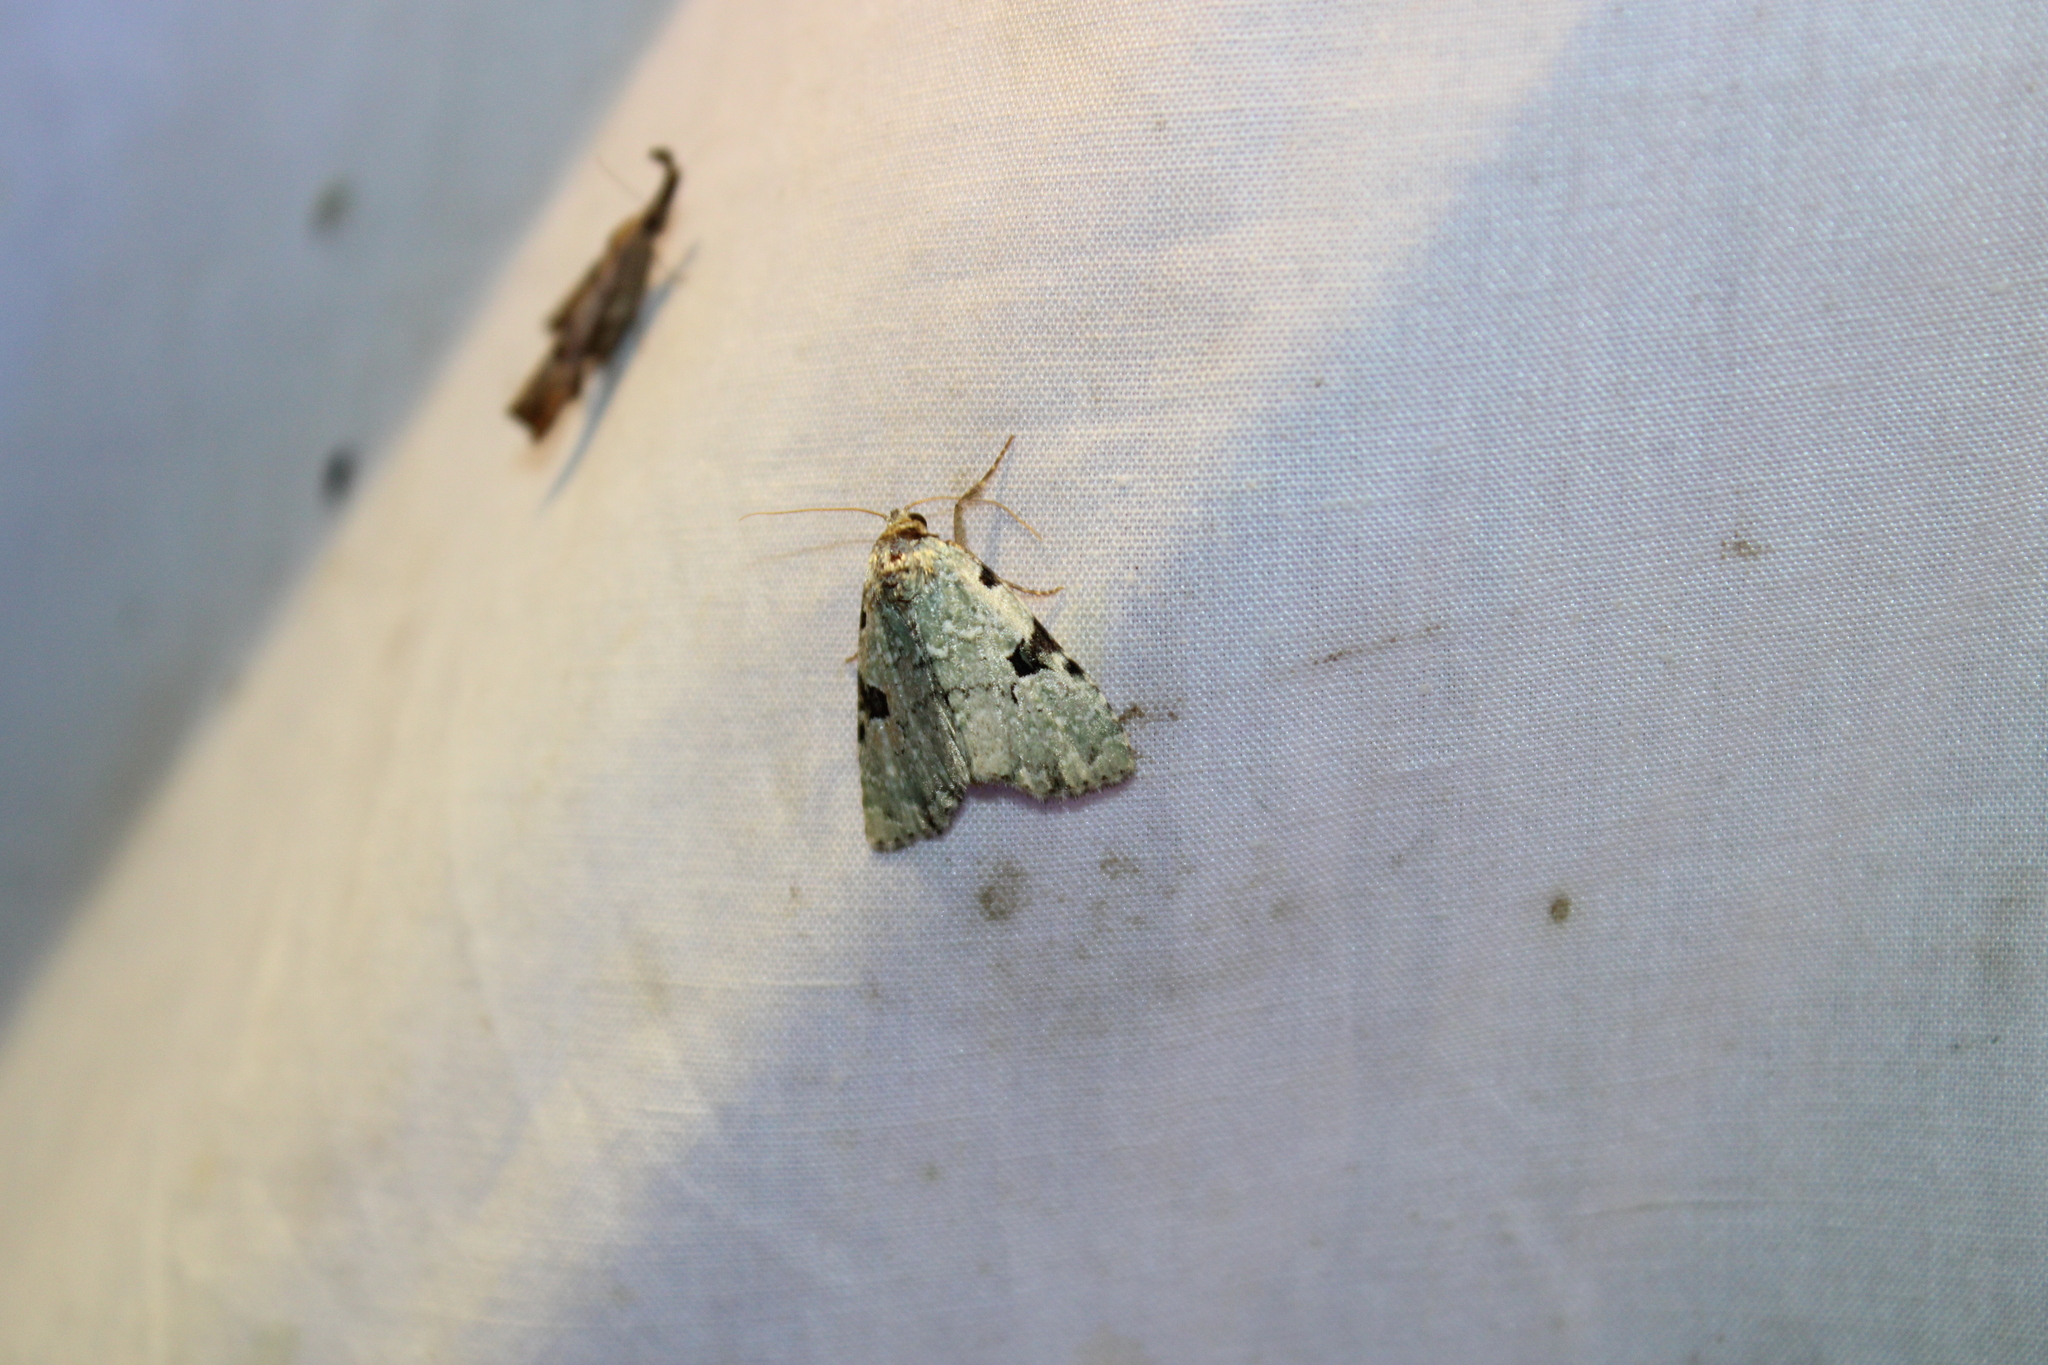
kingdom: Animalia
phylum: Arthropoda
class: Insecta
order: Lepidoptera
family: Noctuidae
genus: Leuconycta
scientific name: Leuconycta diphteroides
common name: Green leuconycta moth
